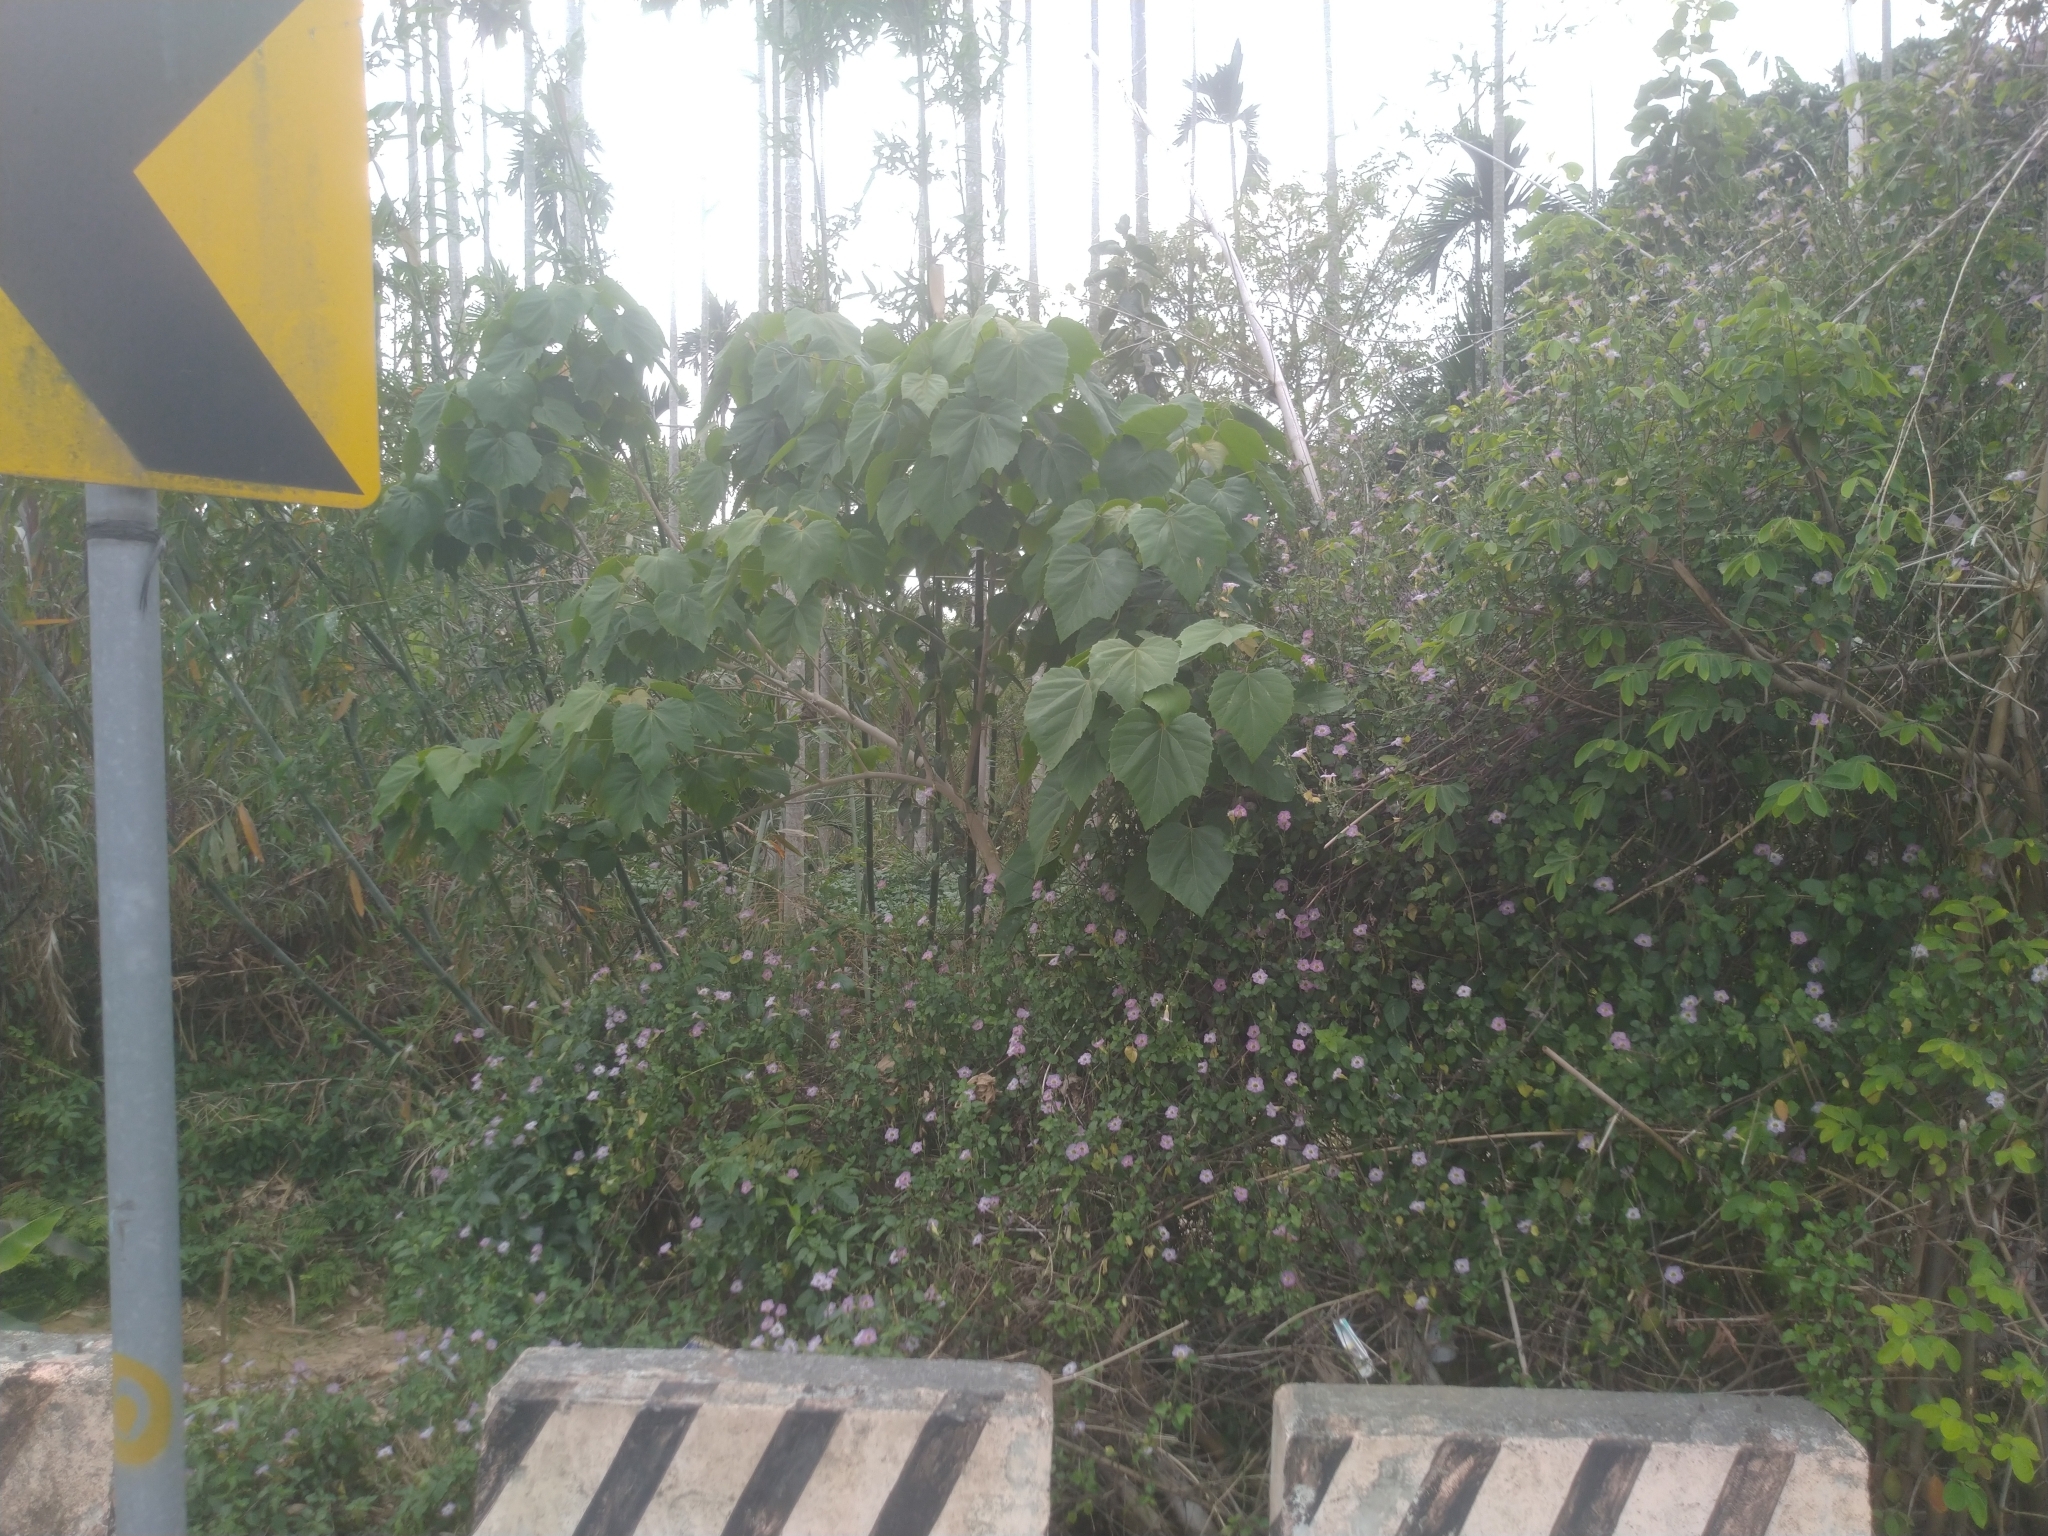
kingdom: Plantae
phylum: Tracheophyta
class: Magnoliopsida
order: Lamiales
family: Acanthaceae
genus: Asystasia
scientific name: Asystasia gangetica
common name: Chinese violet
